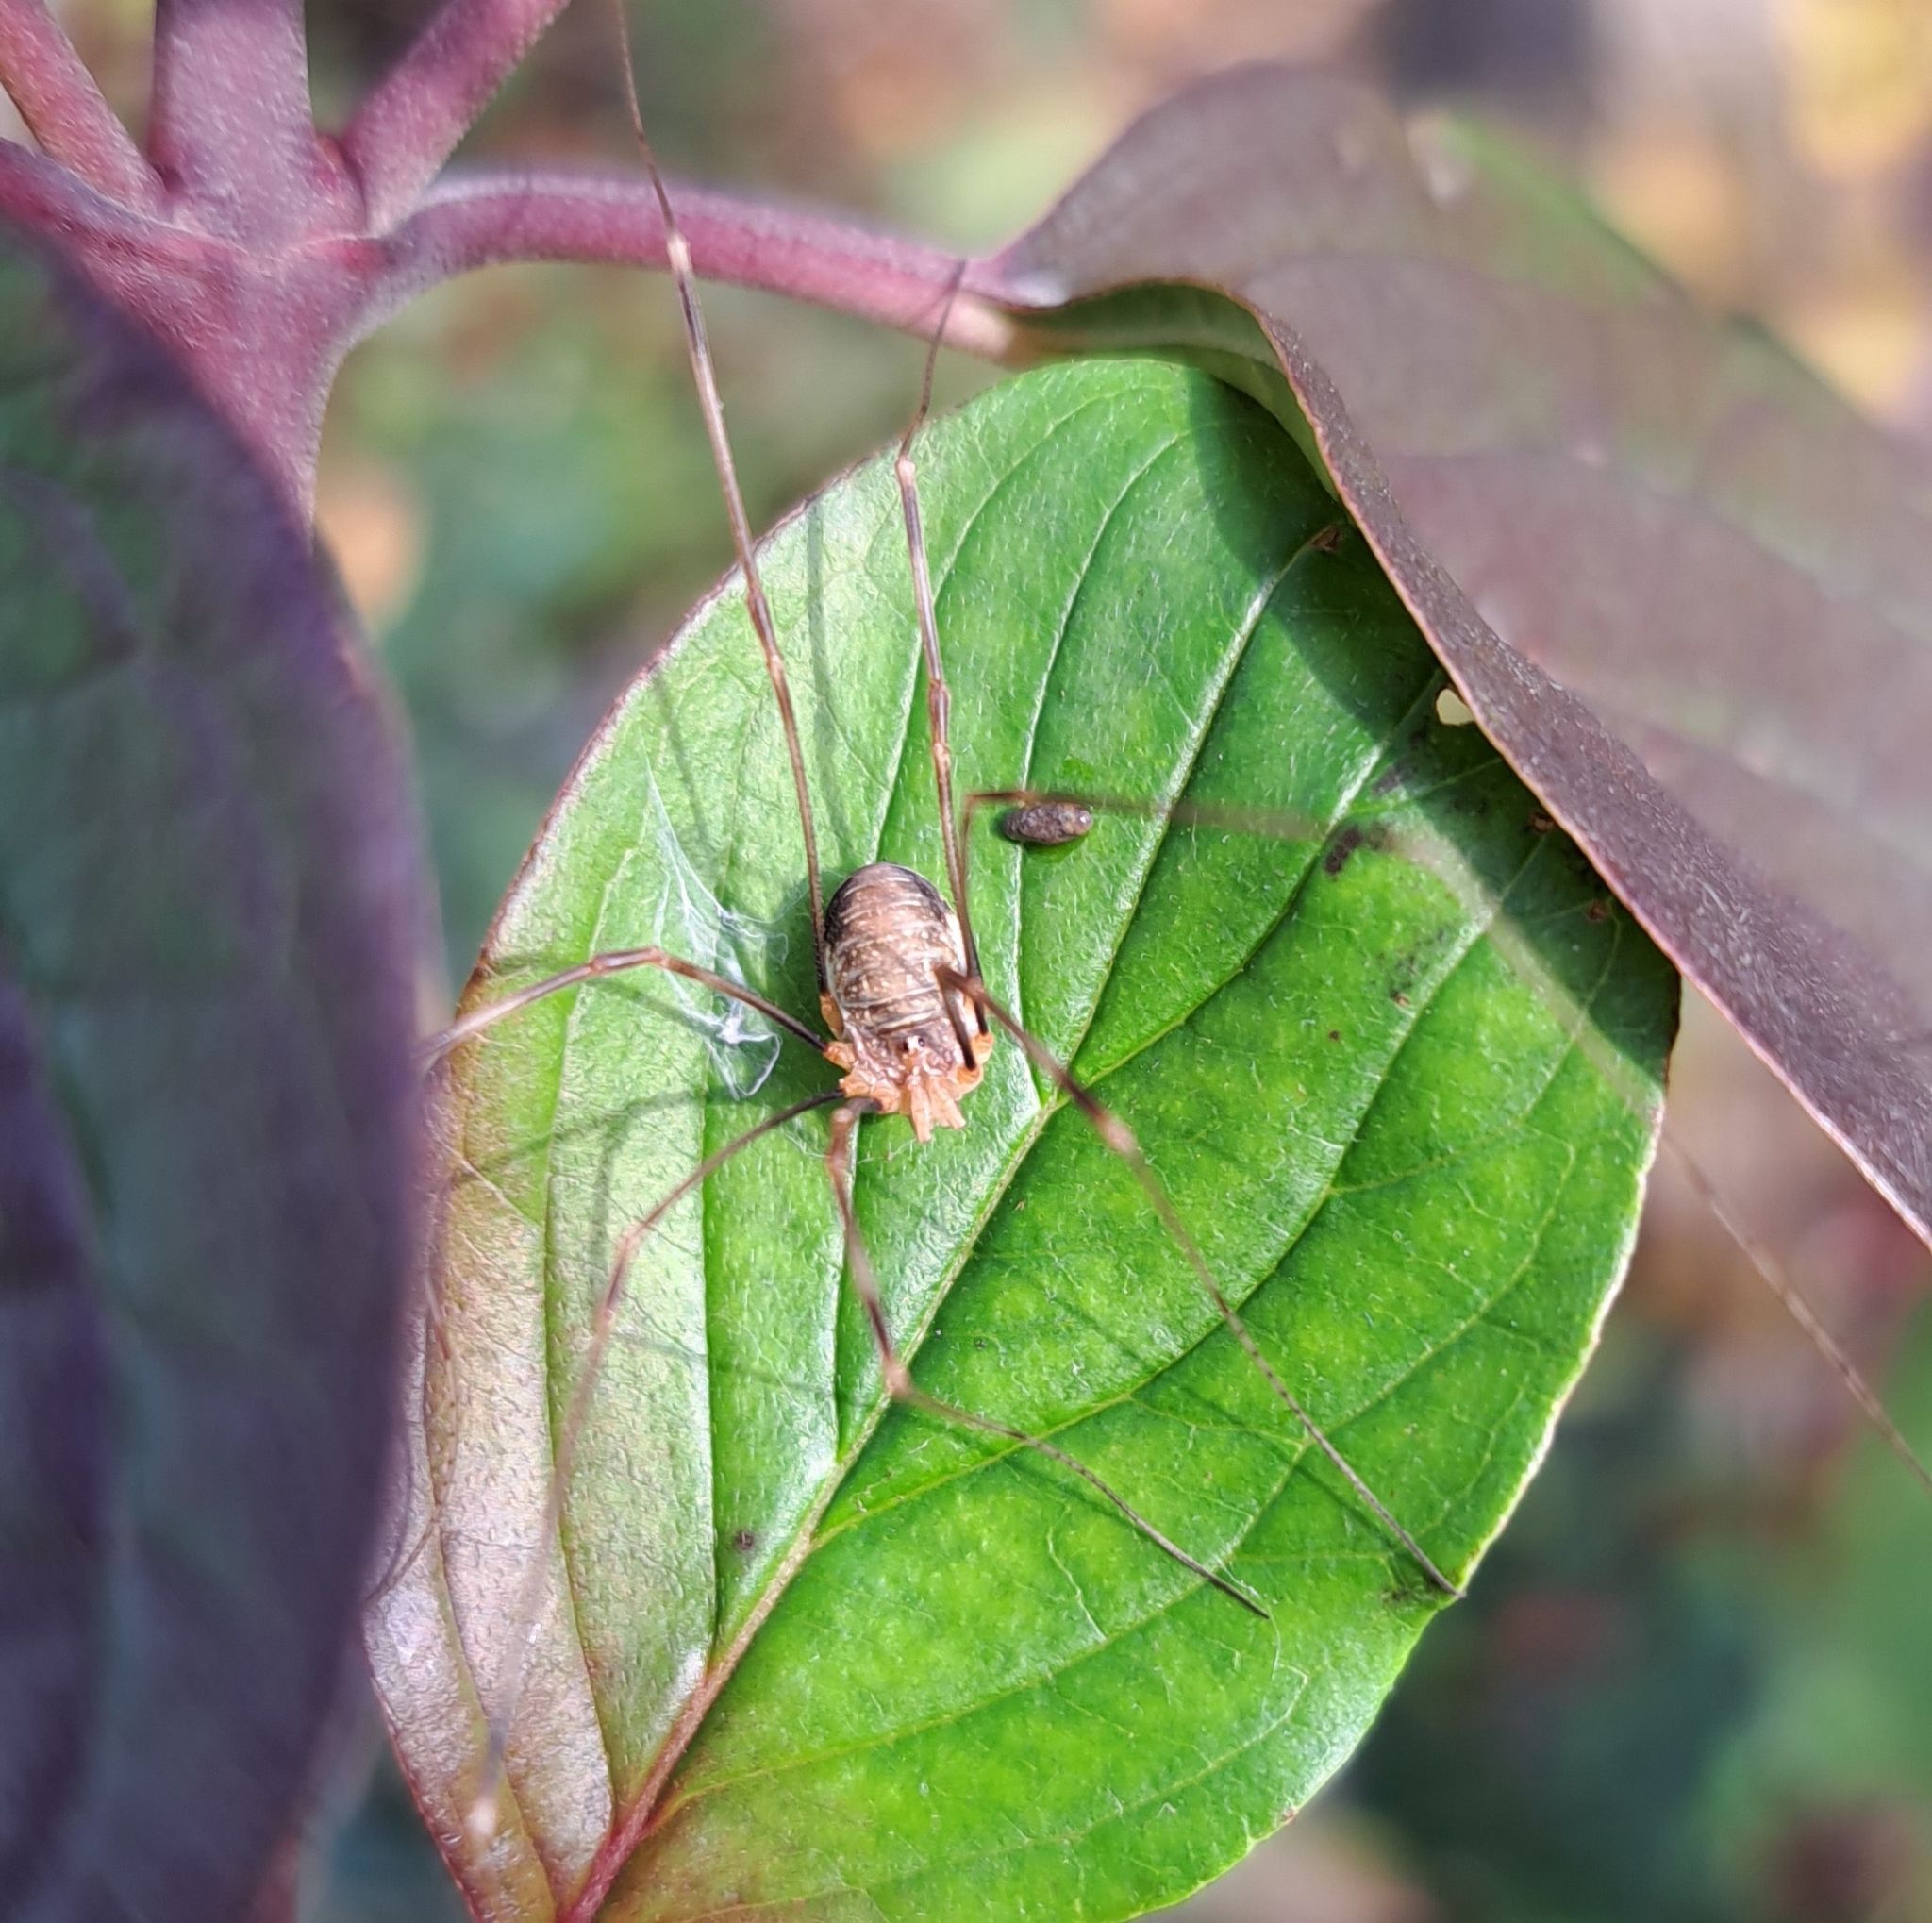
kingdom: Animalia
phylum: Arthropoda
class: Arachnida
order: Opiliones
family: Phalangiidae
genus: Opilio
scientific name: Opilio canestrinii
